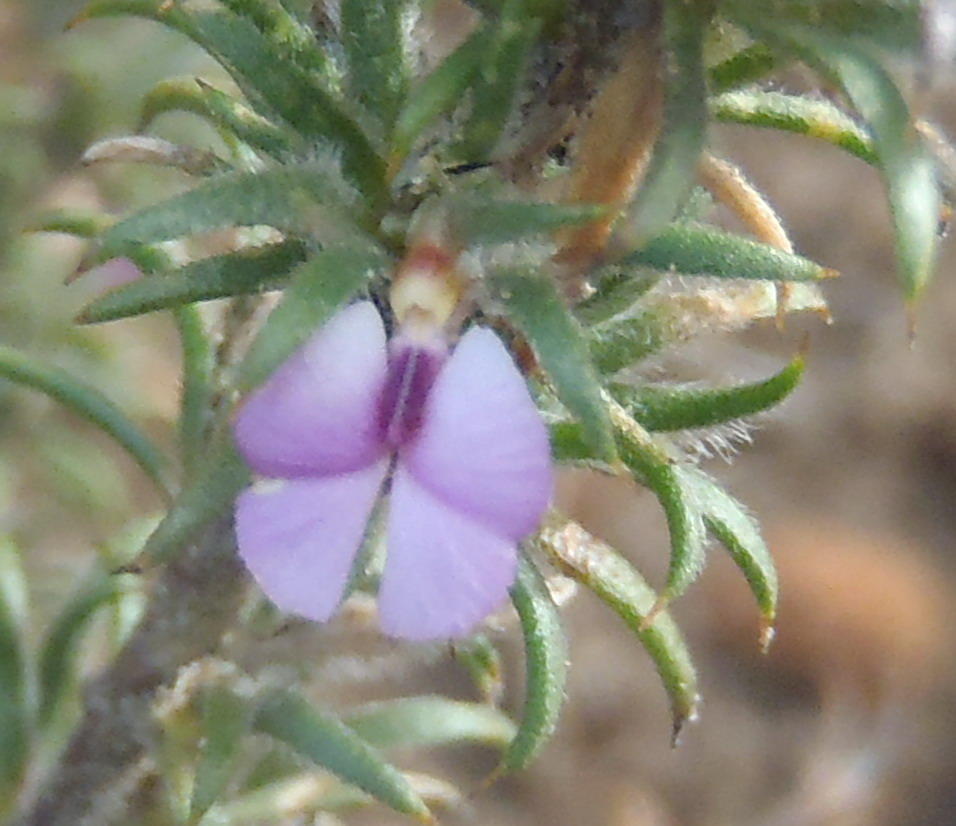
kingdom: Plantae
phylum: Tracheophyta
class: Magnoliopsida
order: Fabales
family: Polygalaceae
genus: Muraltia
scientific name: Muraltia squarrosa
